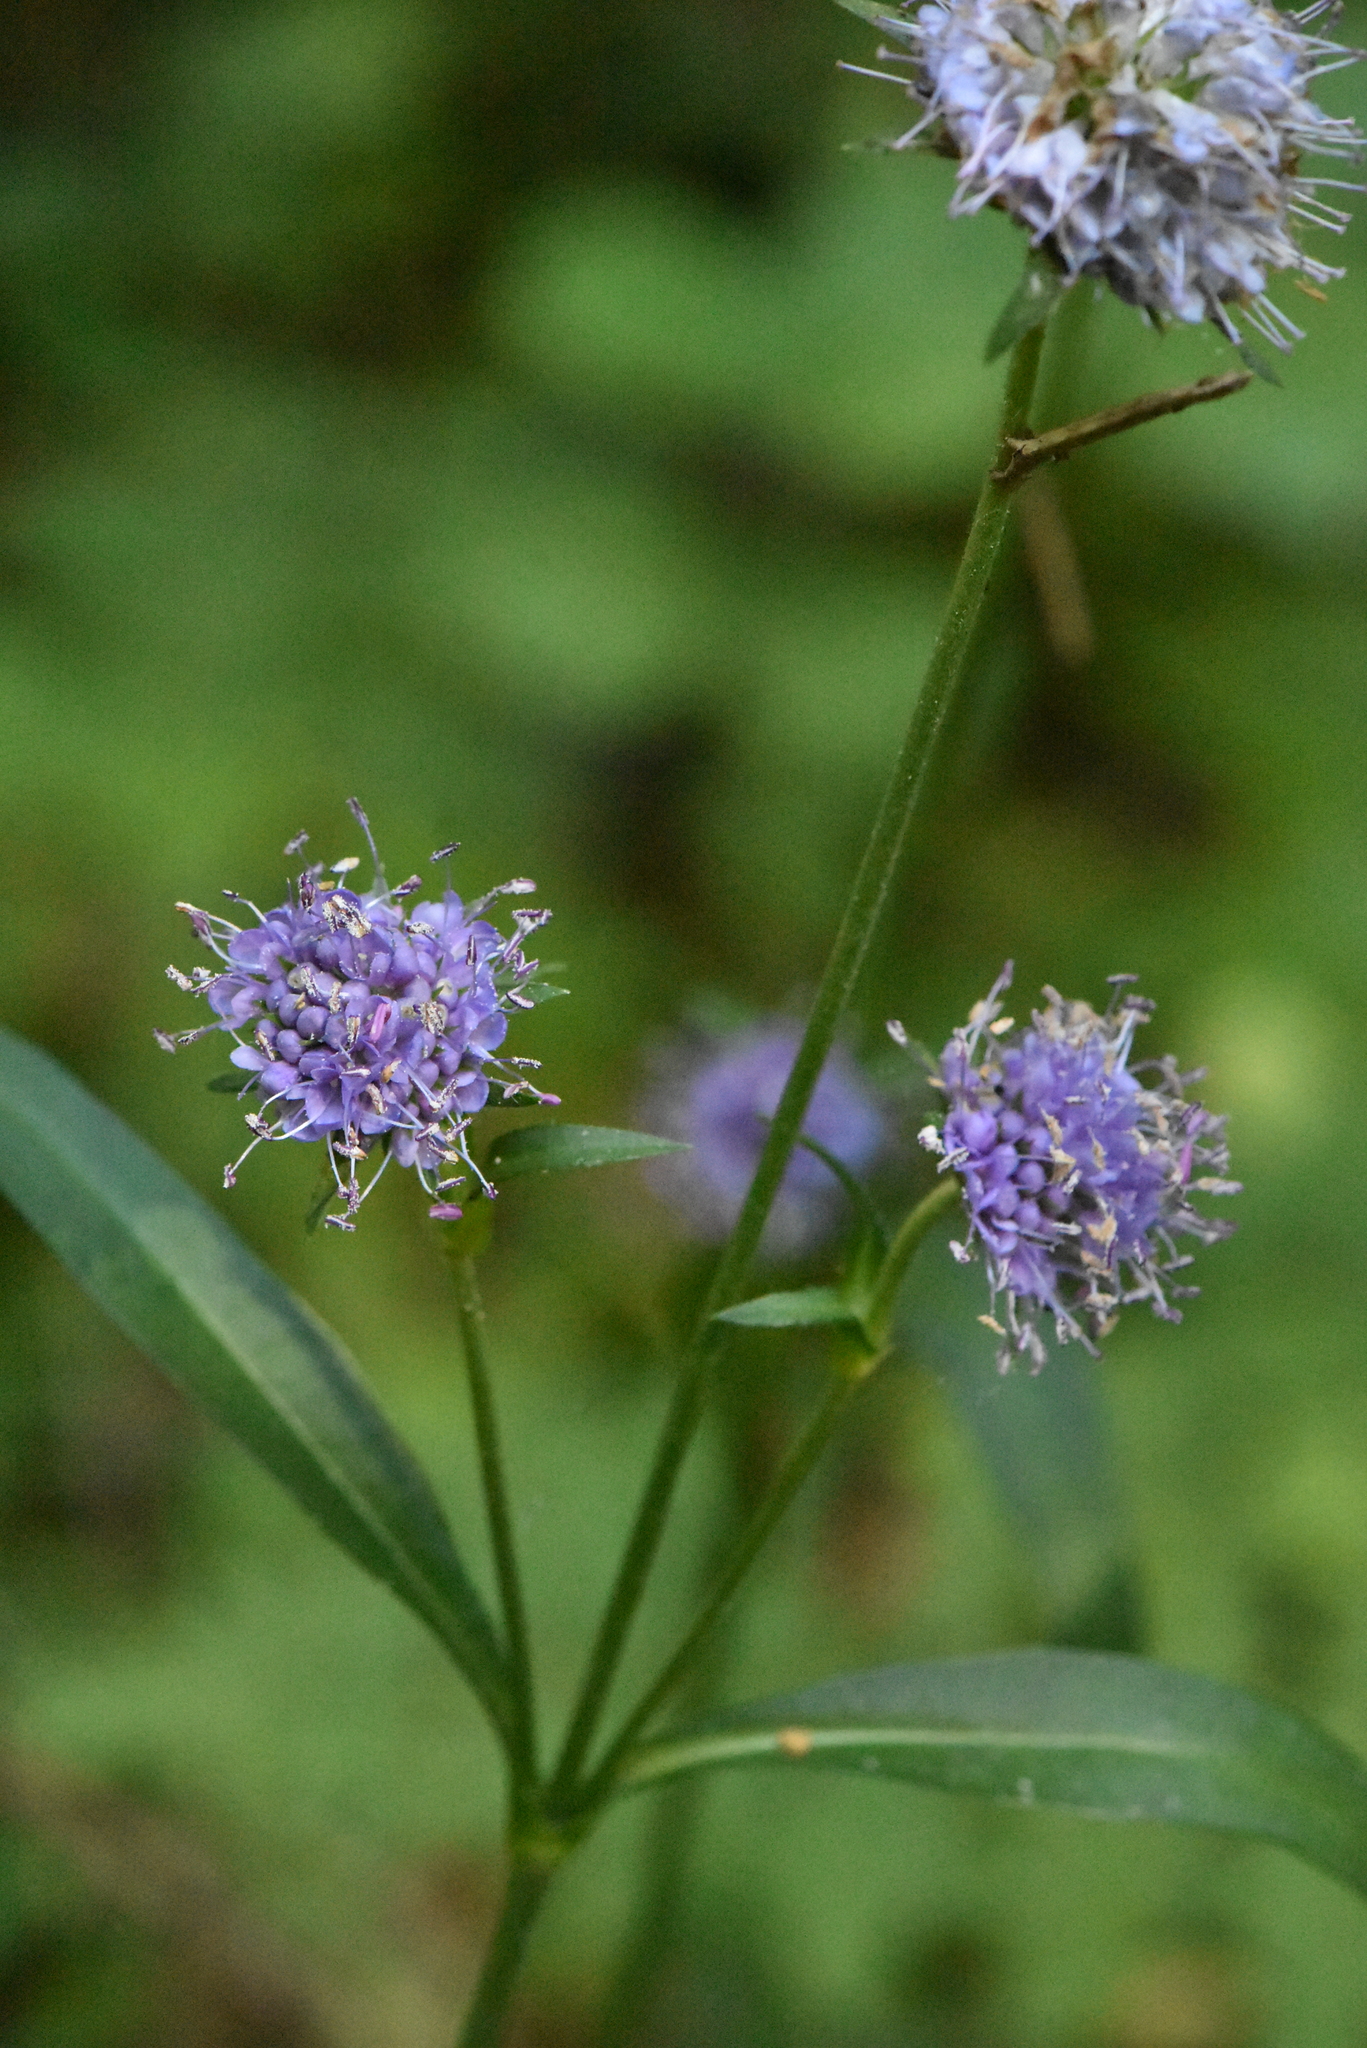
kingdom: Plantae
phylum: Tracheophyta
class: Magnoliopsida
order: Dipsacales
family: Caprifoliaceae
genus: Succisa
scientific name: Succisa pratensis
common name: Devil's-bit
